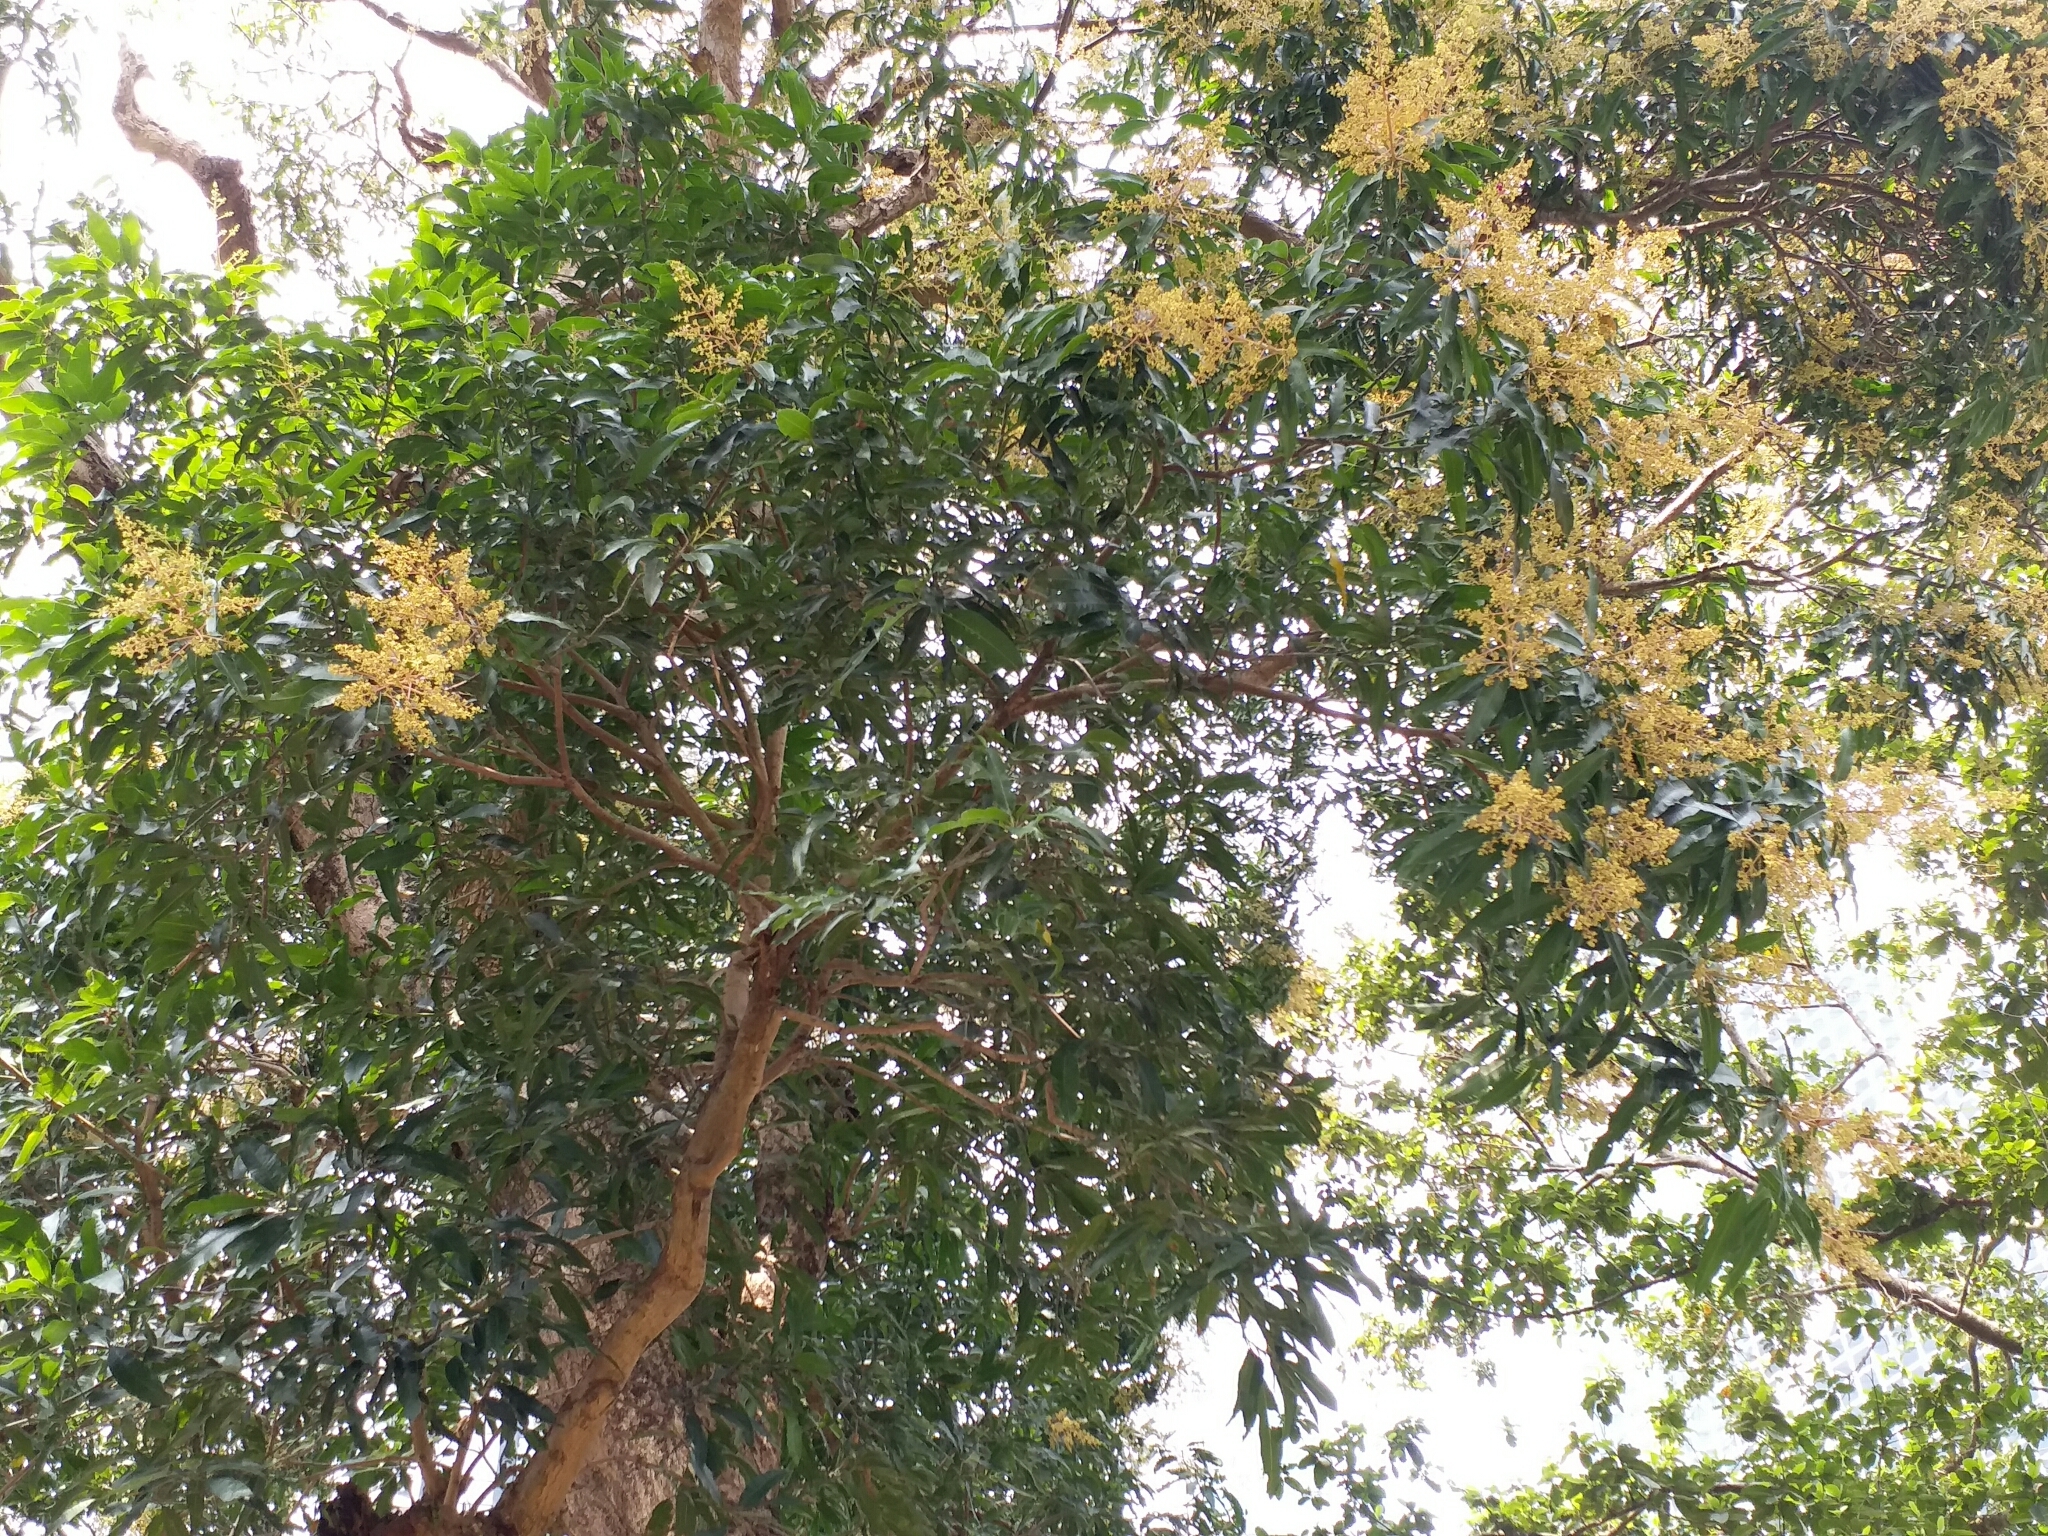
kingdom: Plantae
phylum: Tracheophyta
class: Magnoliopsida
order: Sapindales
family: Anacardiaceae
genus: Mangifera
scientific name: Mangifera indica
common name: Mango
